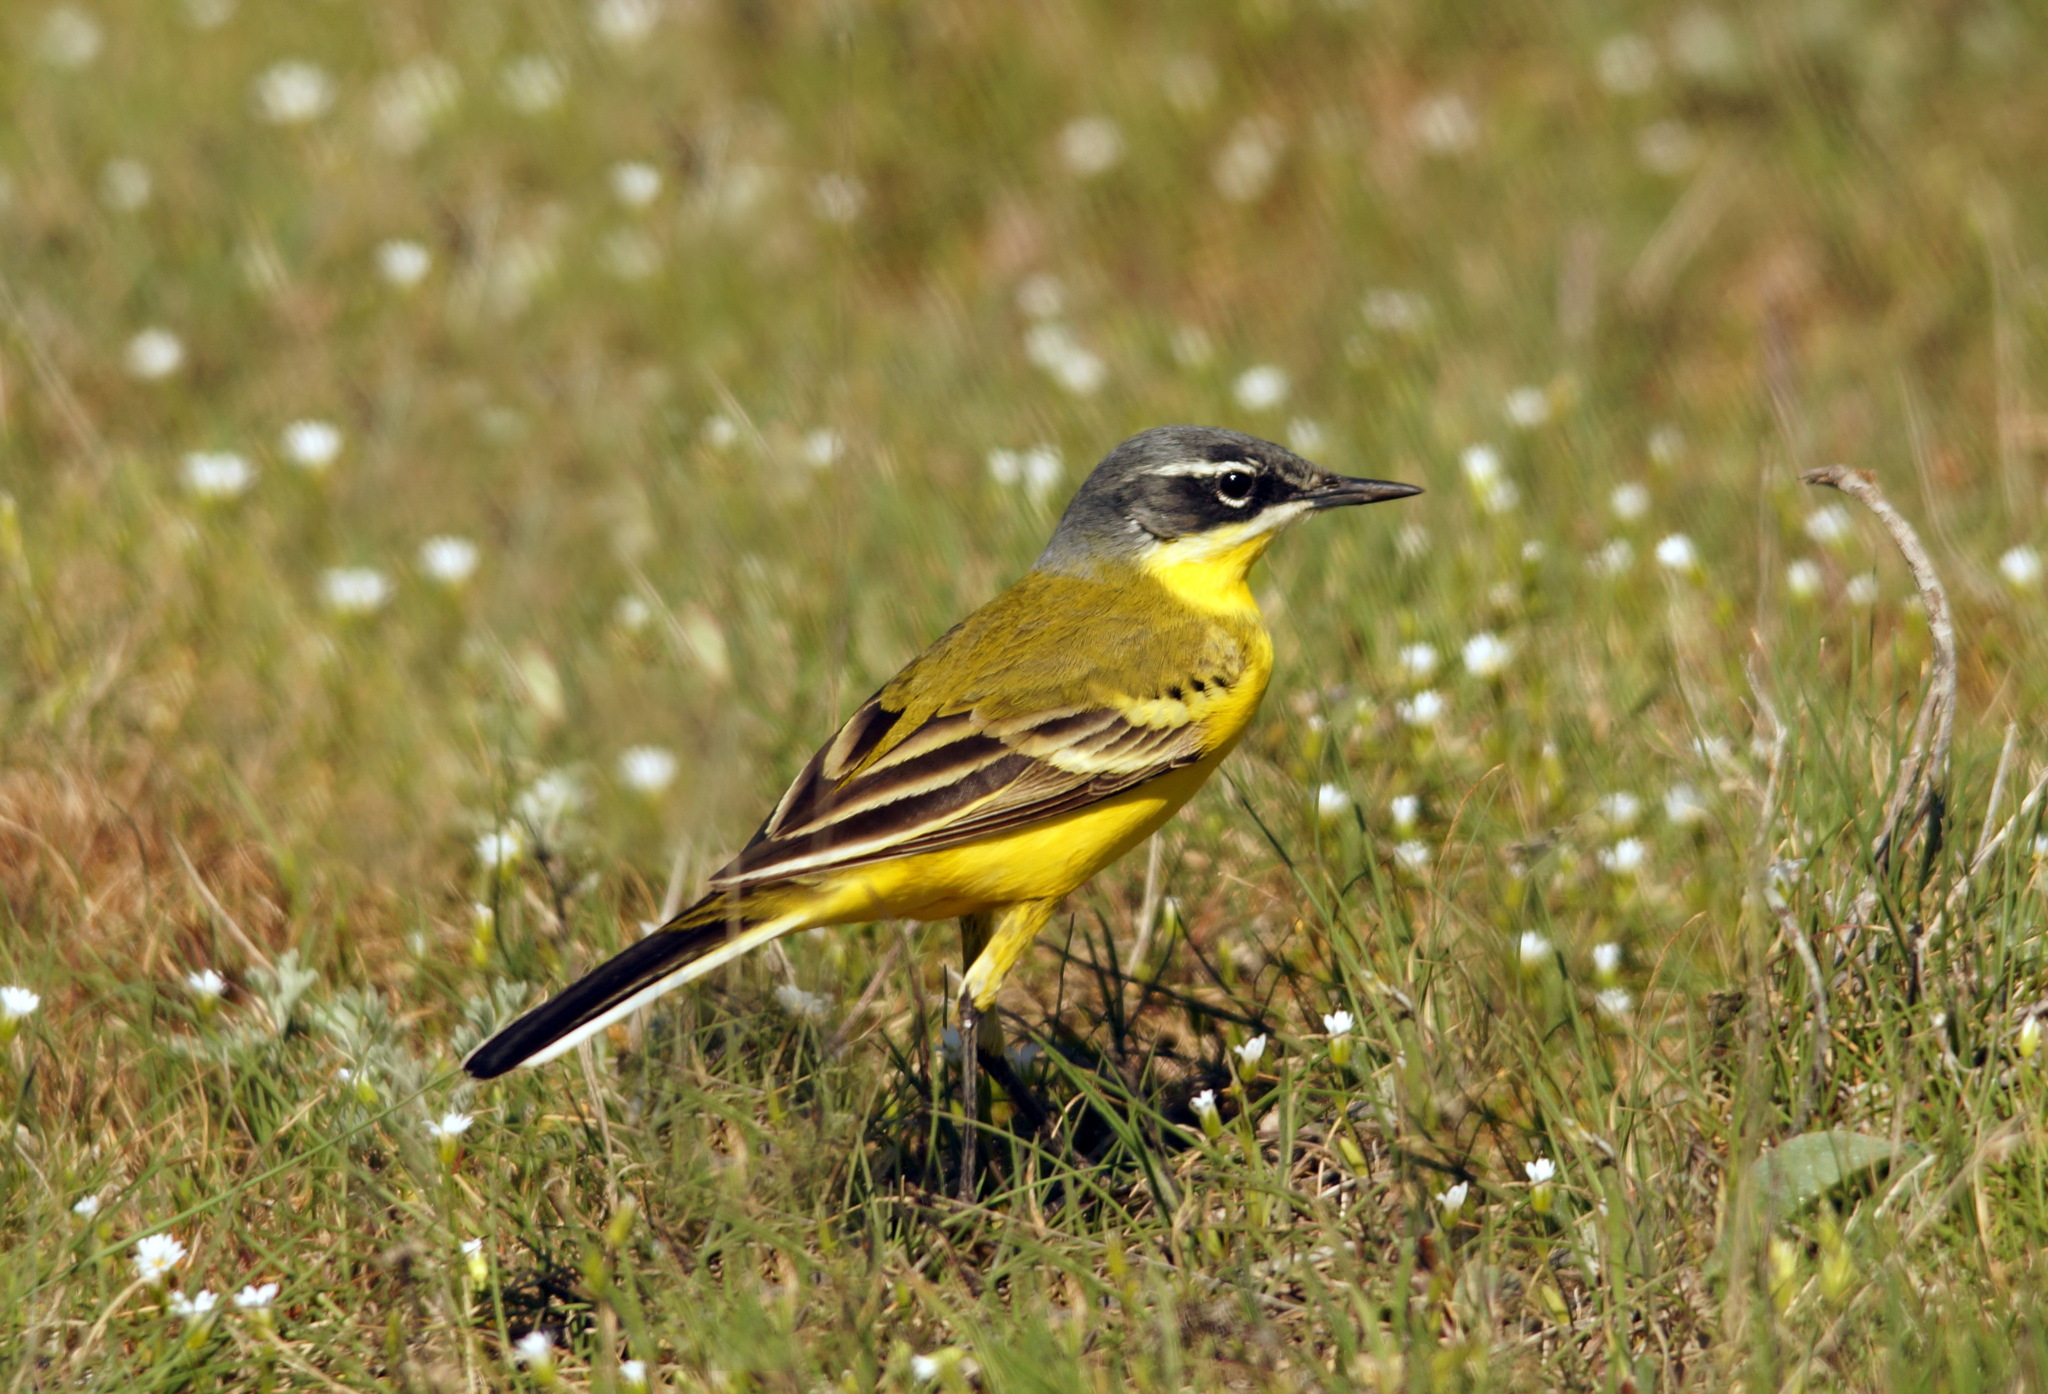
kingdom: Animalia
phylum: Chordata
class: Aves
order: Passeriformes
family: Motacillidae
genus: Motacilla
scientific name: Motacilla flava
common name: Western yellow wagtail
